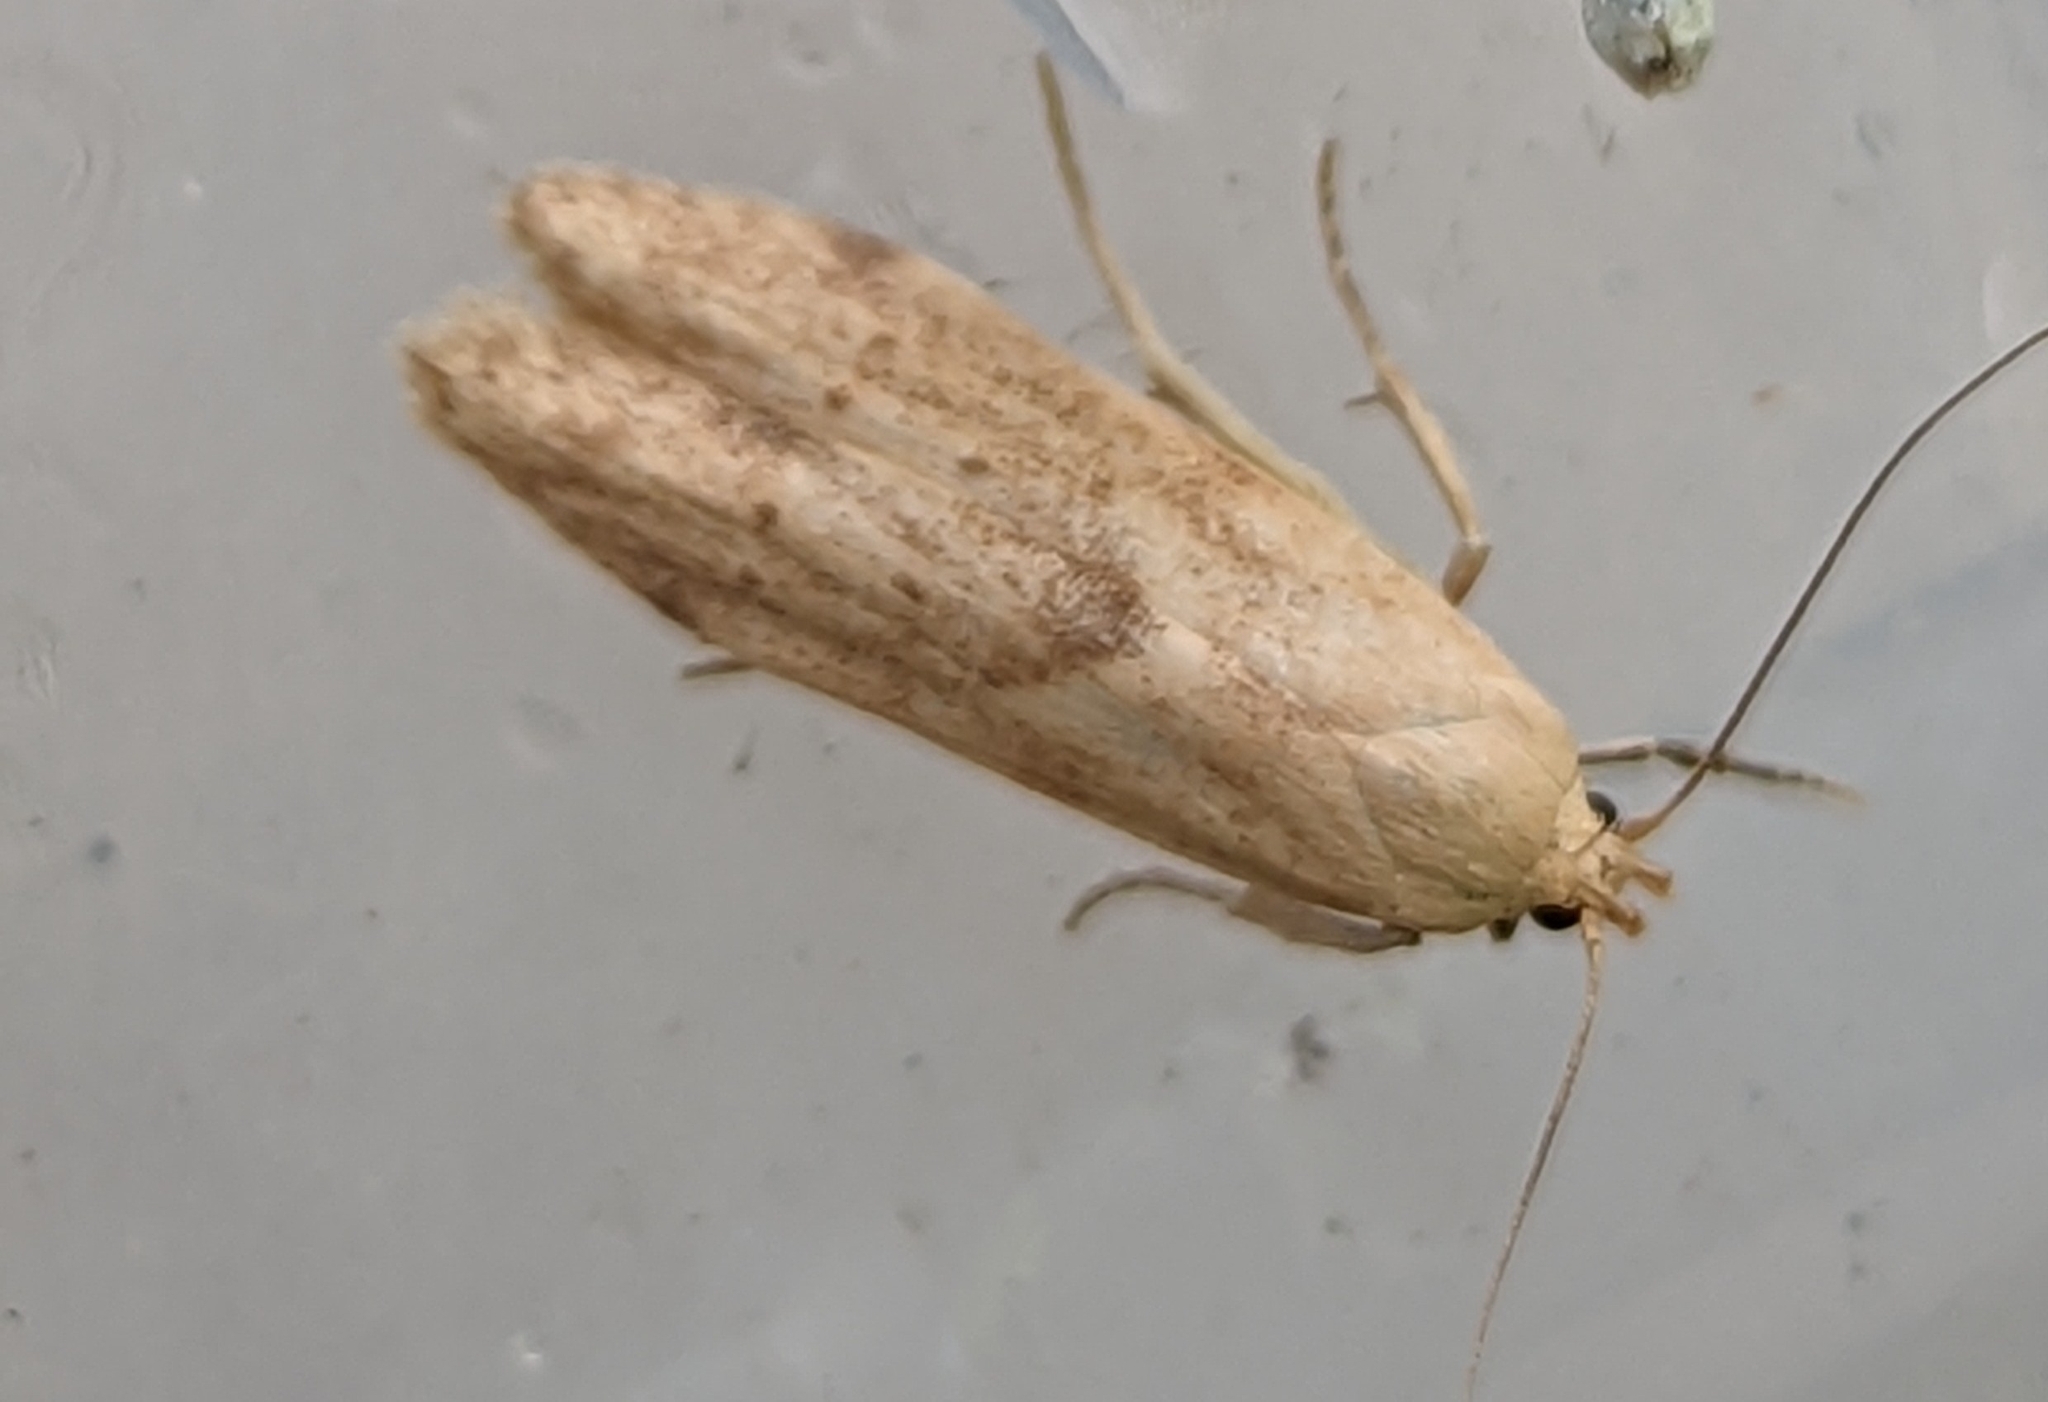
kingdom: Animalia
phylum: Arthropoda
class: Insecta
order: Lepidoptera
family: Blastobasidae
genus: Blastobasis
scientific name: Blastobasis lacticolella
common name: London dowd
